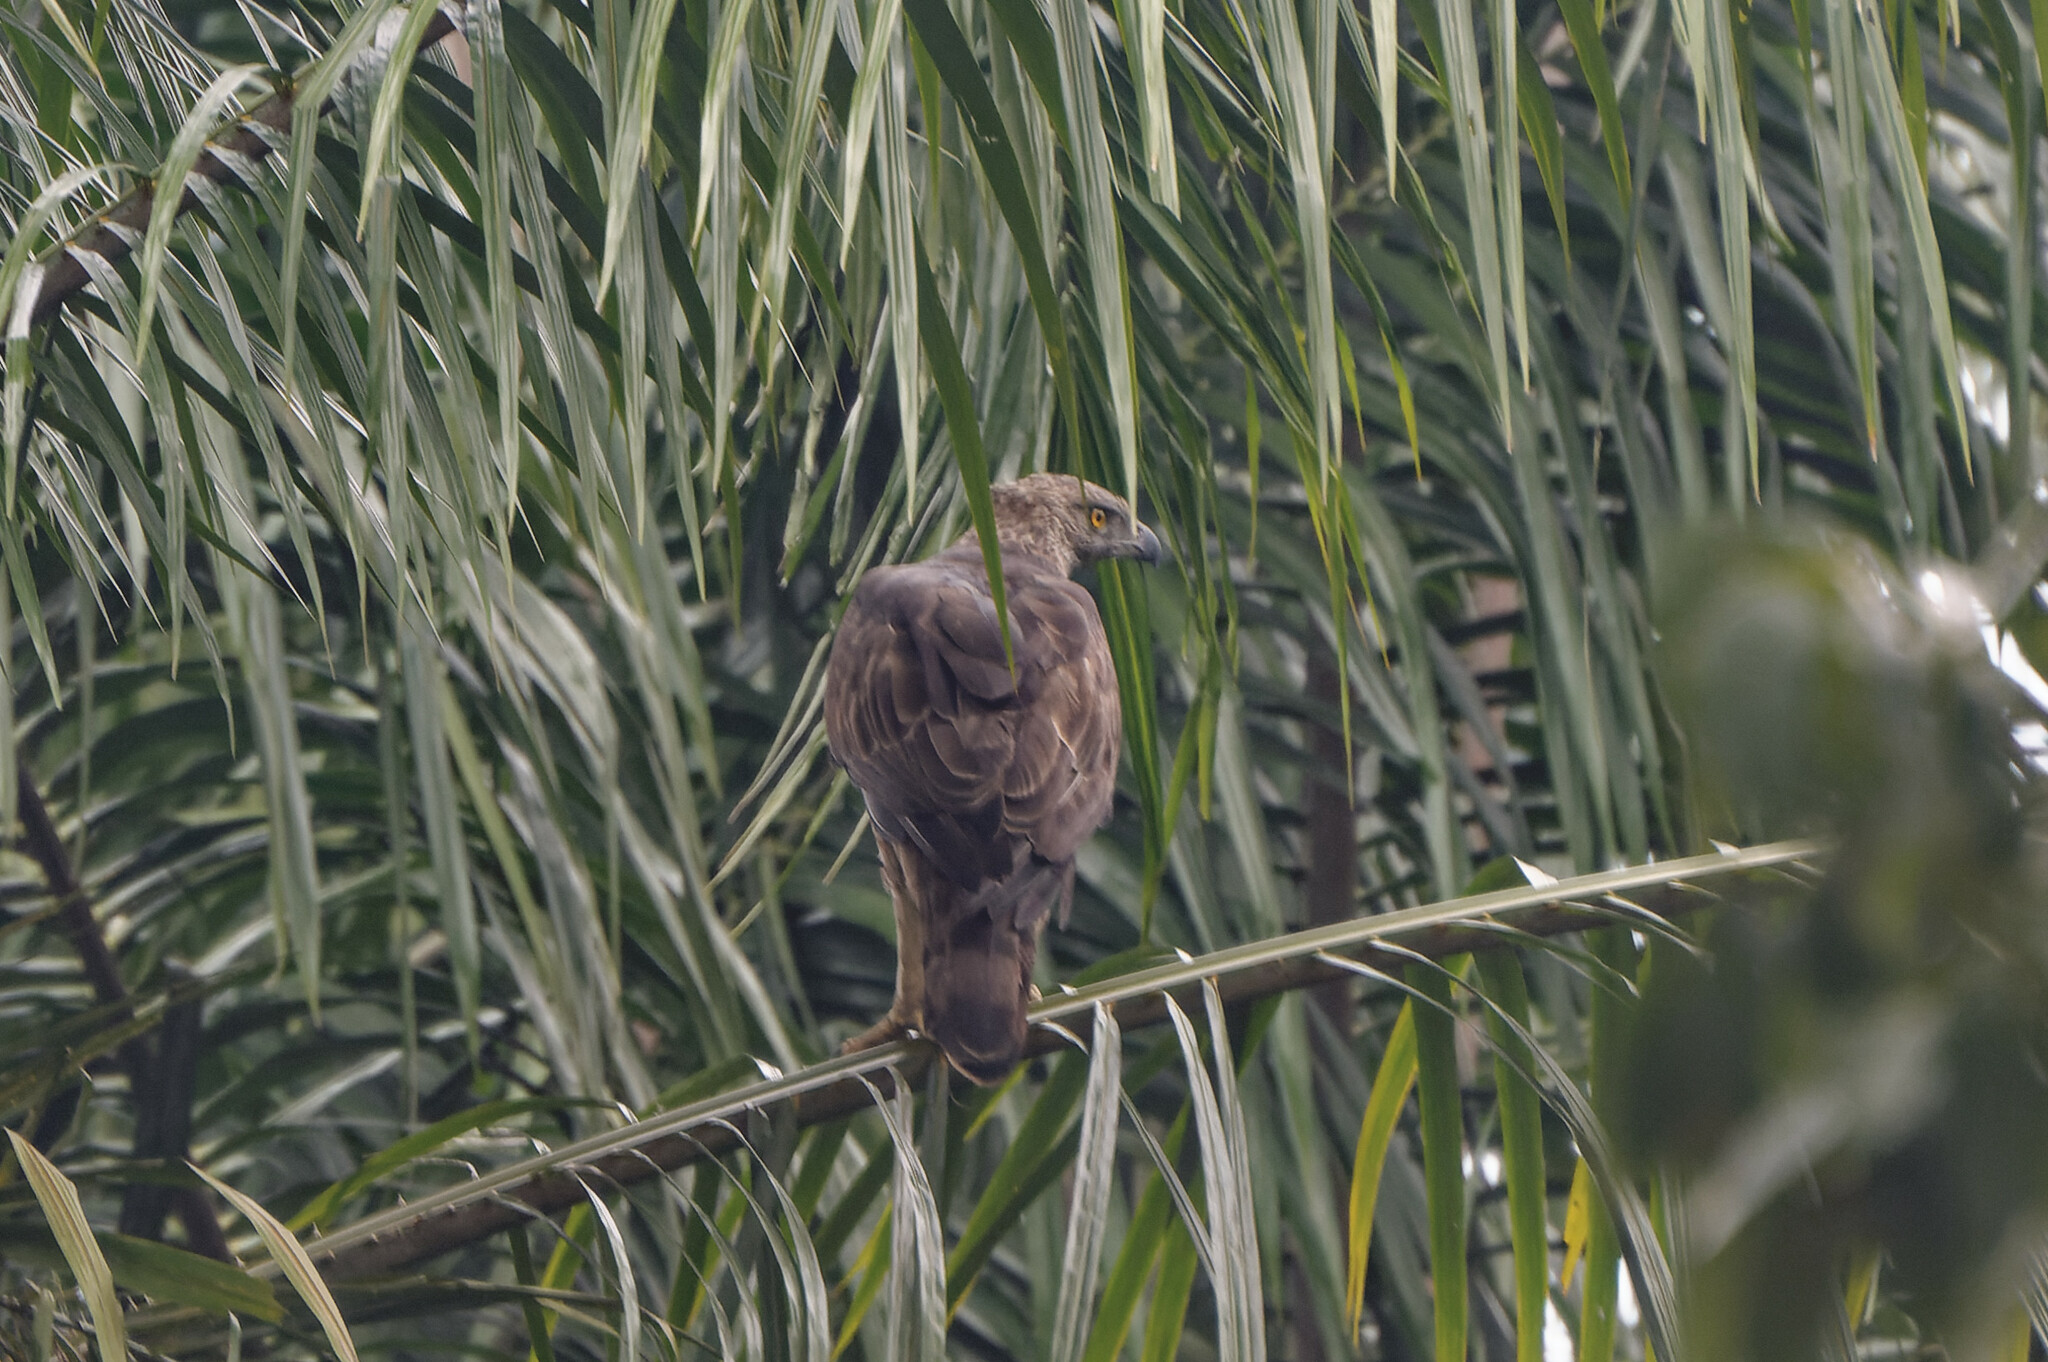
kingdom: Animalia
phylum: Chordata
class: Aves
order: Accipitriformes
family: Accipitridae
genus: Nisaetus
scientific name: Nisaetus cirrhatus
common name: Changeable hawk-eagle
